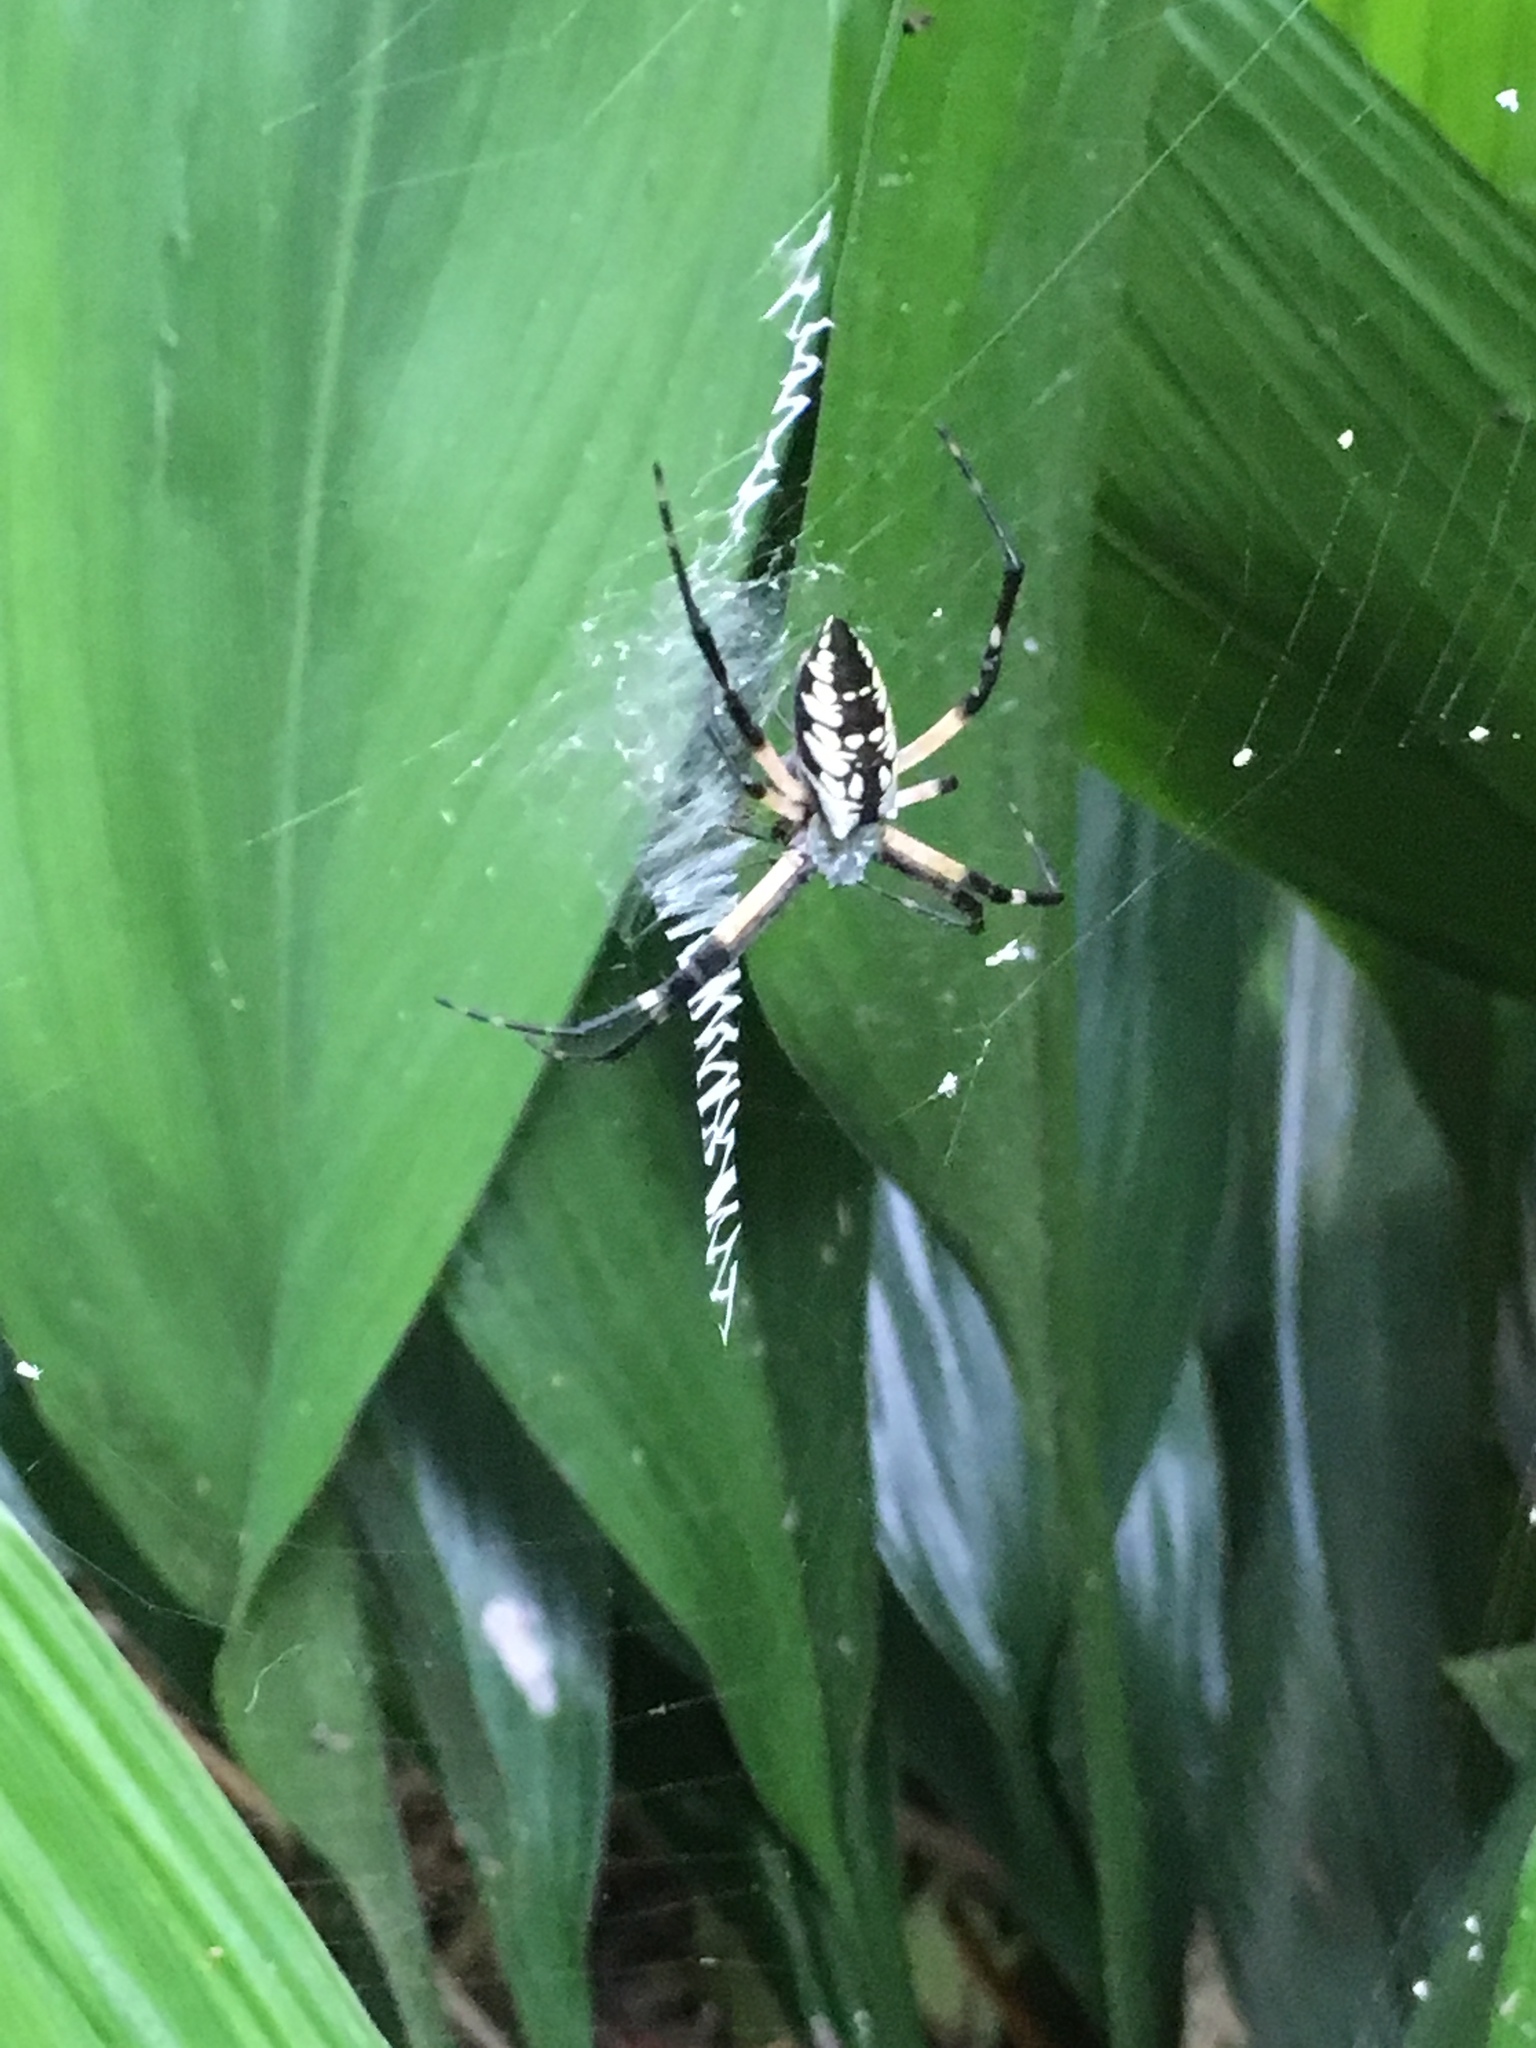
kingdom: Animalia
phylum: Arthropoda
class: Arachnida
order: Araneae
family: Araneidae
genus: Argiope
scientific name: Argiope aurantia
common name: Orb weavers
